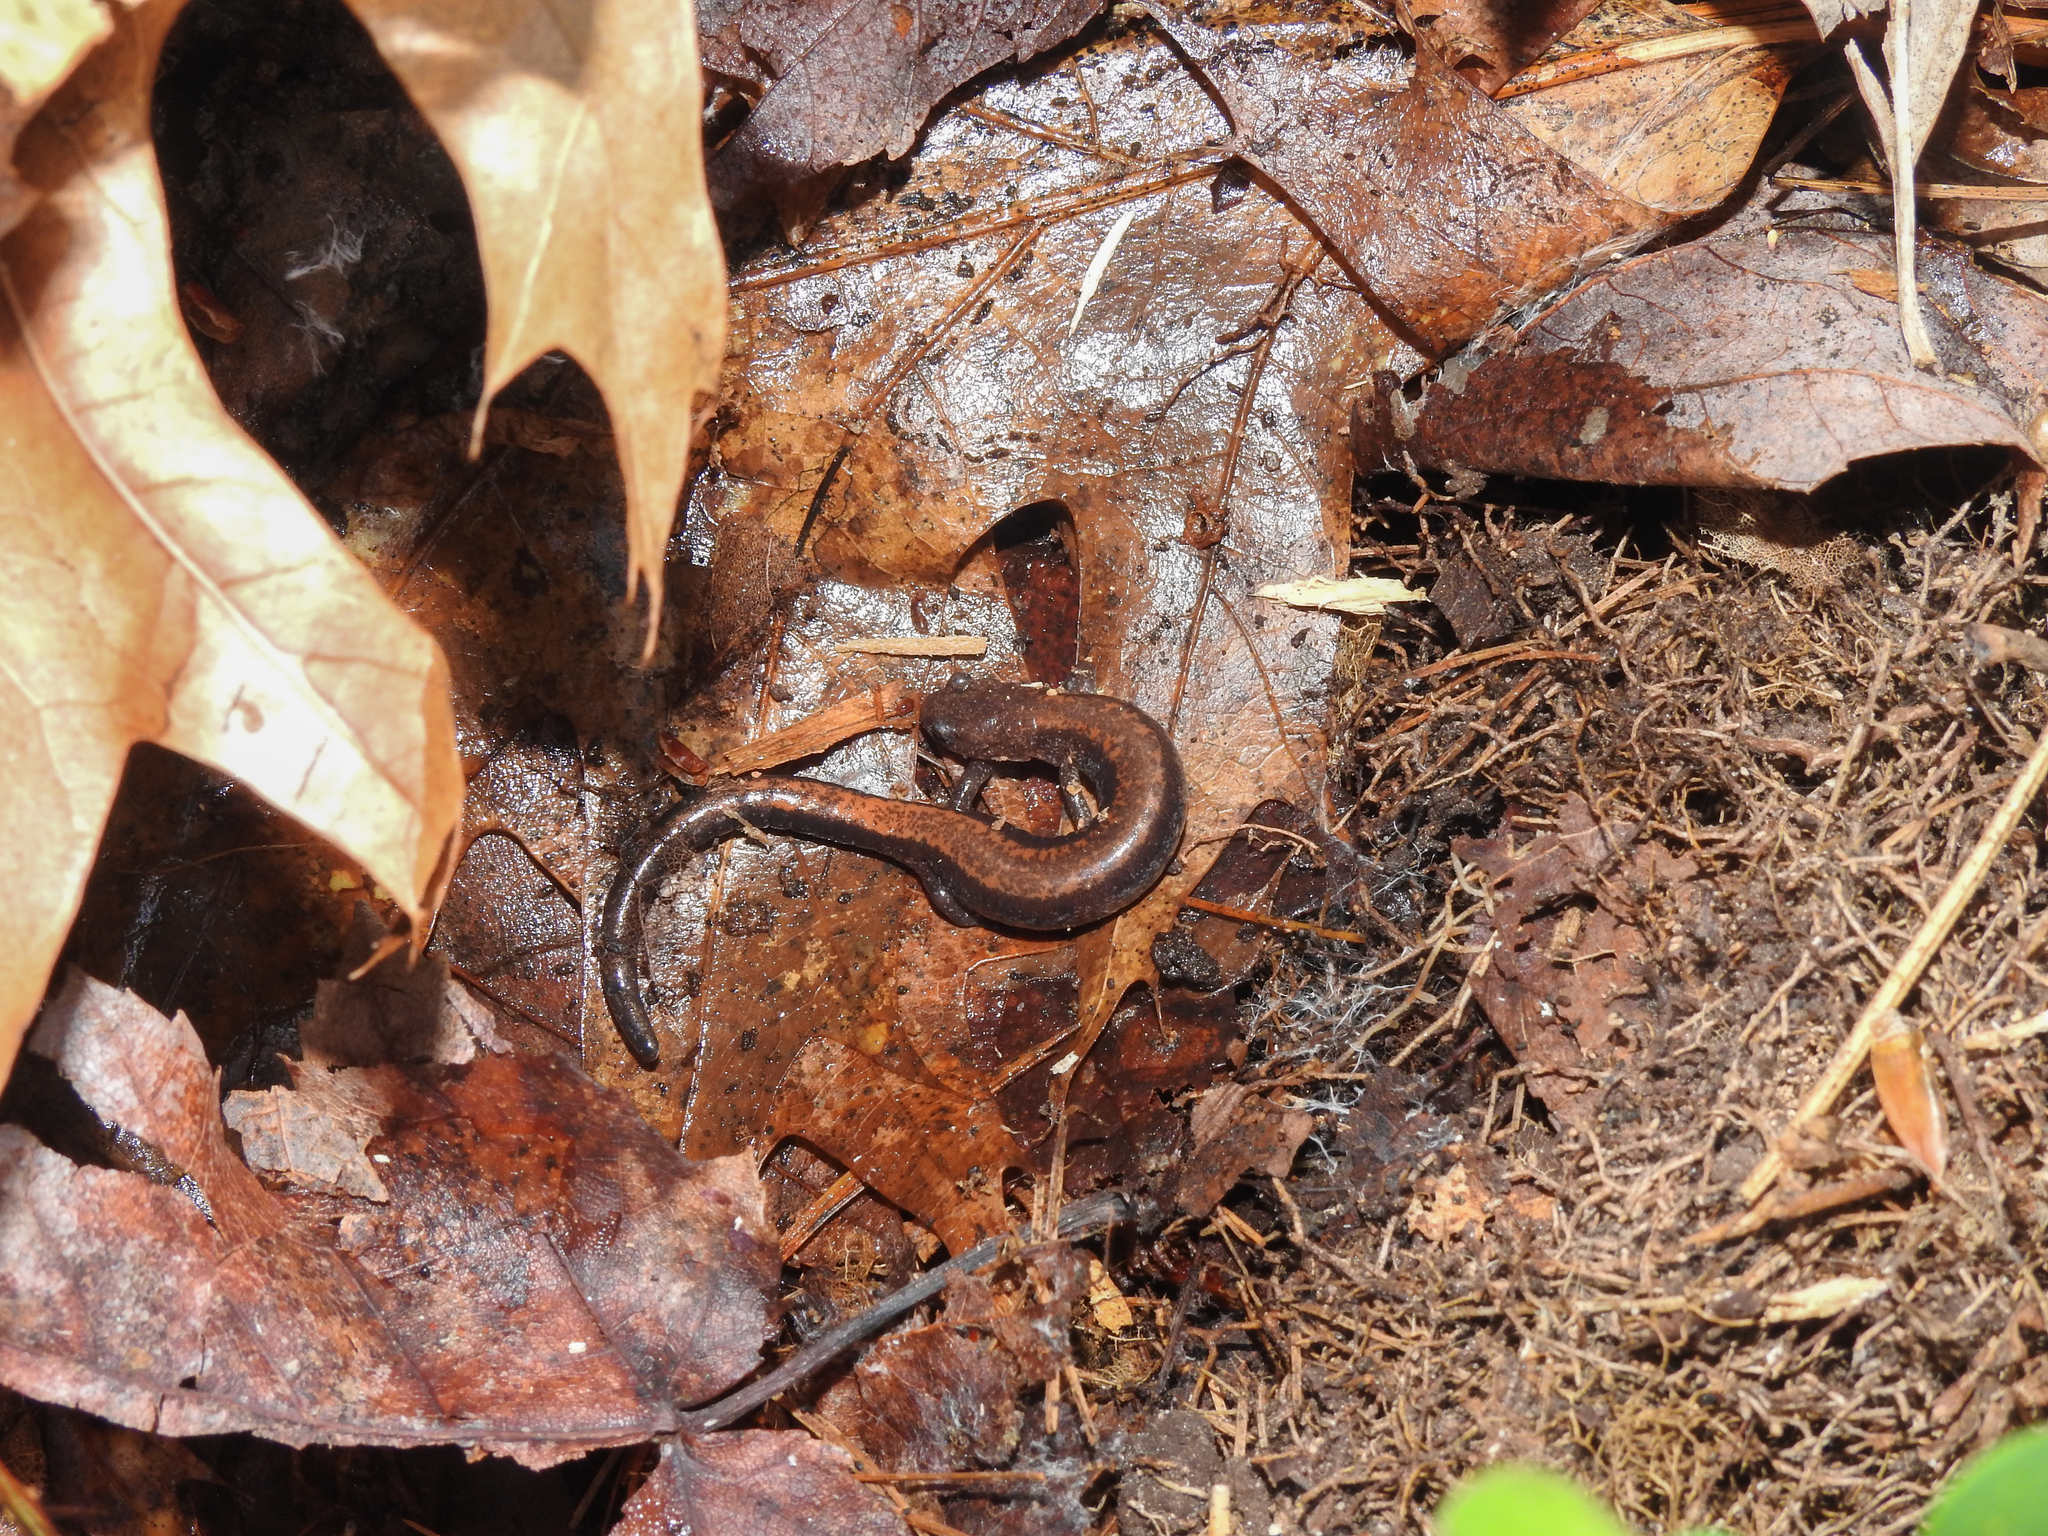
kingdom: Animalia
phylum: Chordata
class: Amphibia
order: Caudata
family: Plethodontidae
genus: Plethodon
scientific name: Plethodon cinereus
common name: Redback salamander
